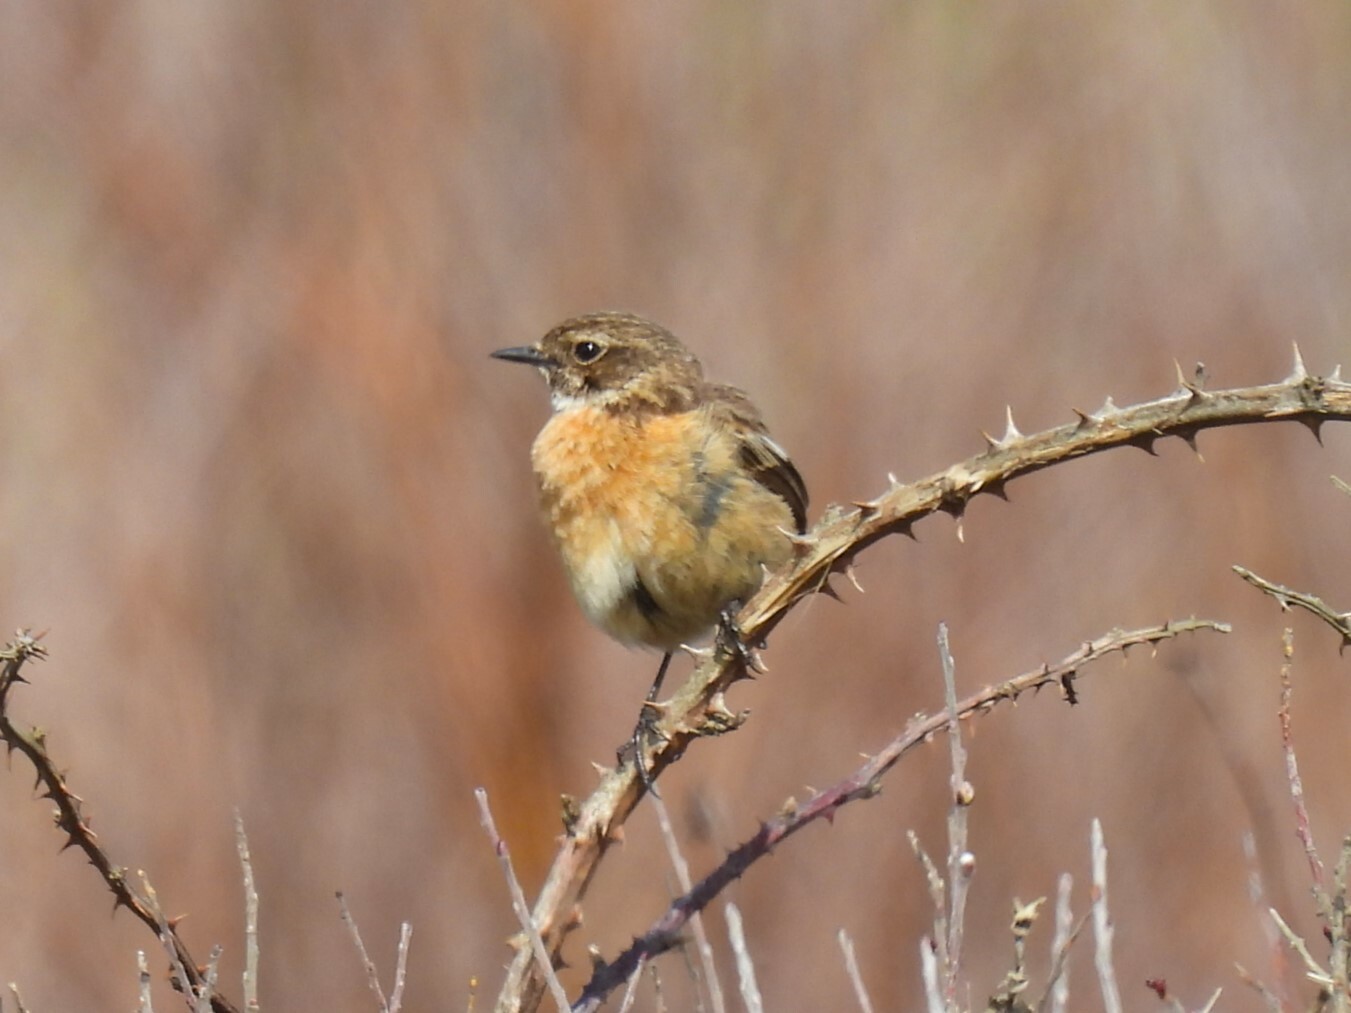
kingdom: Animalia
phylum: Chordata
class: Aves
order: Passeriformes
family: Muscicapidae
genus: Saxicola
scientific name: Saxicola rubicola
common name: European stonechat
